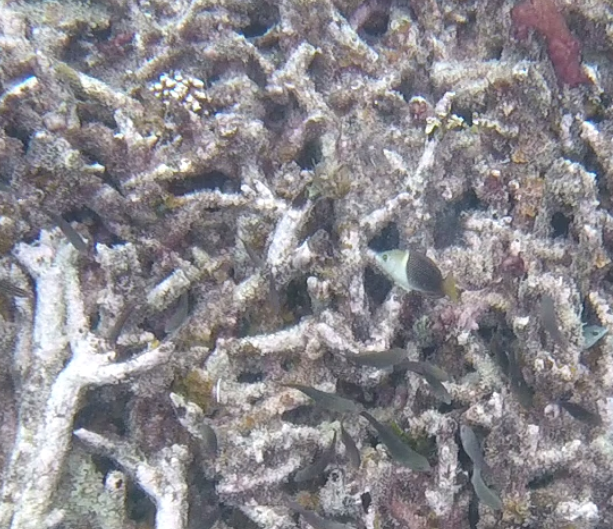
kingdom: Animalia
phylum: Chordata
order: Perciformes
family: Labridae
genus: Hemigymnus
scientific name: Hemigymnus melapterus
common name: Blackeye thicklip
